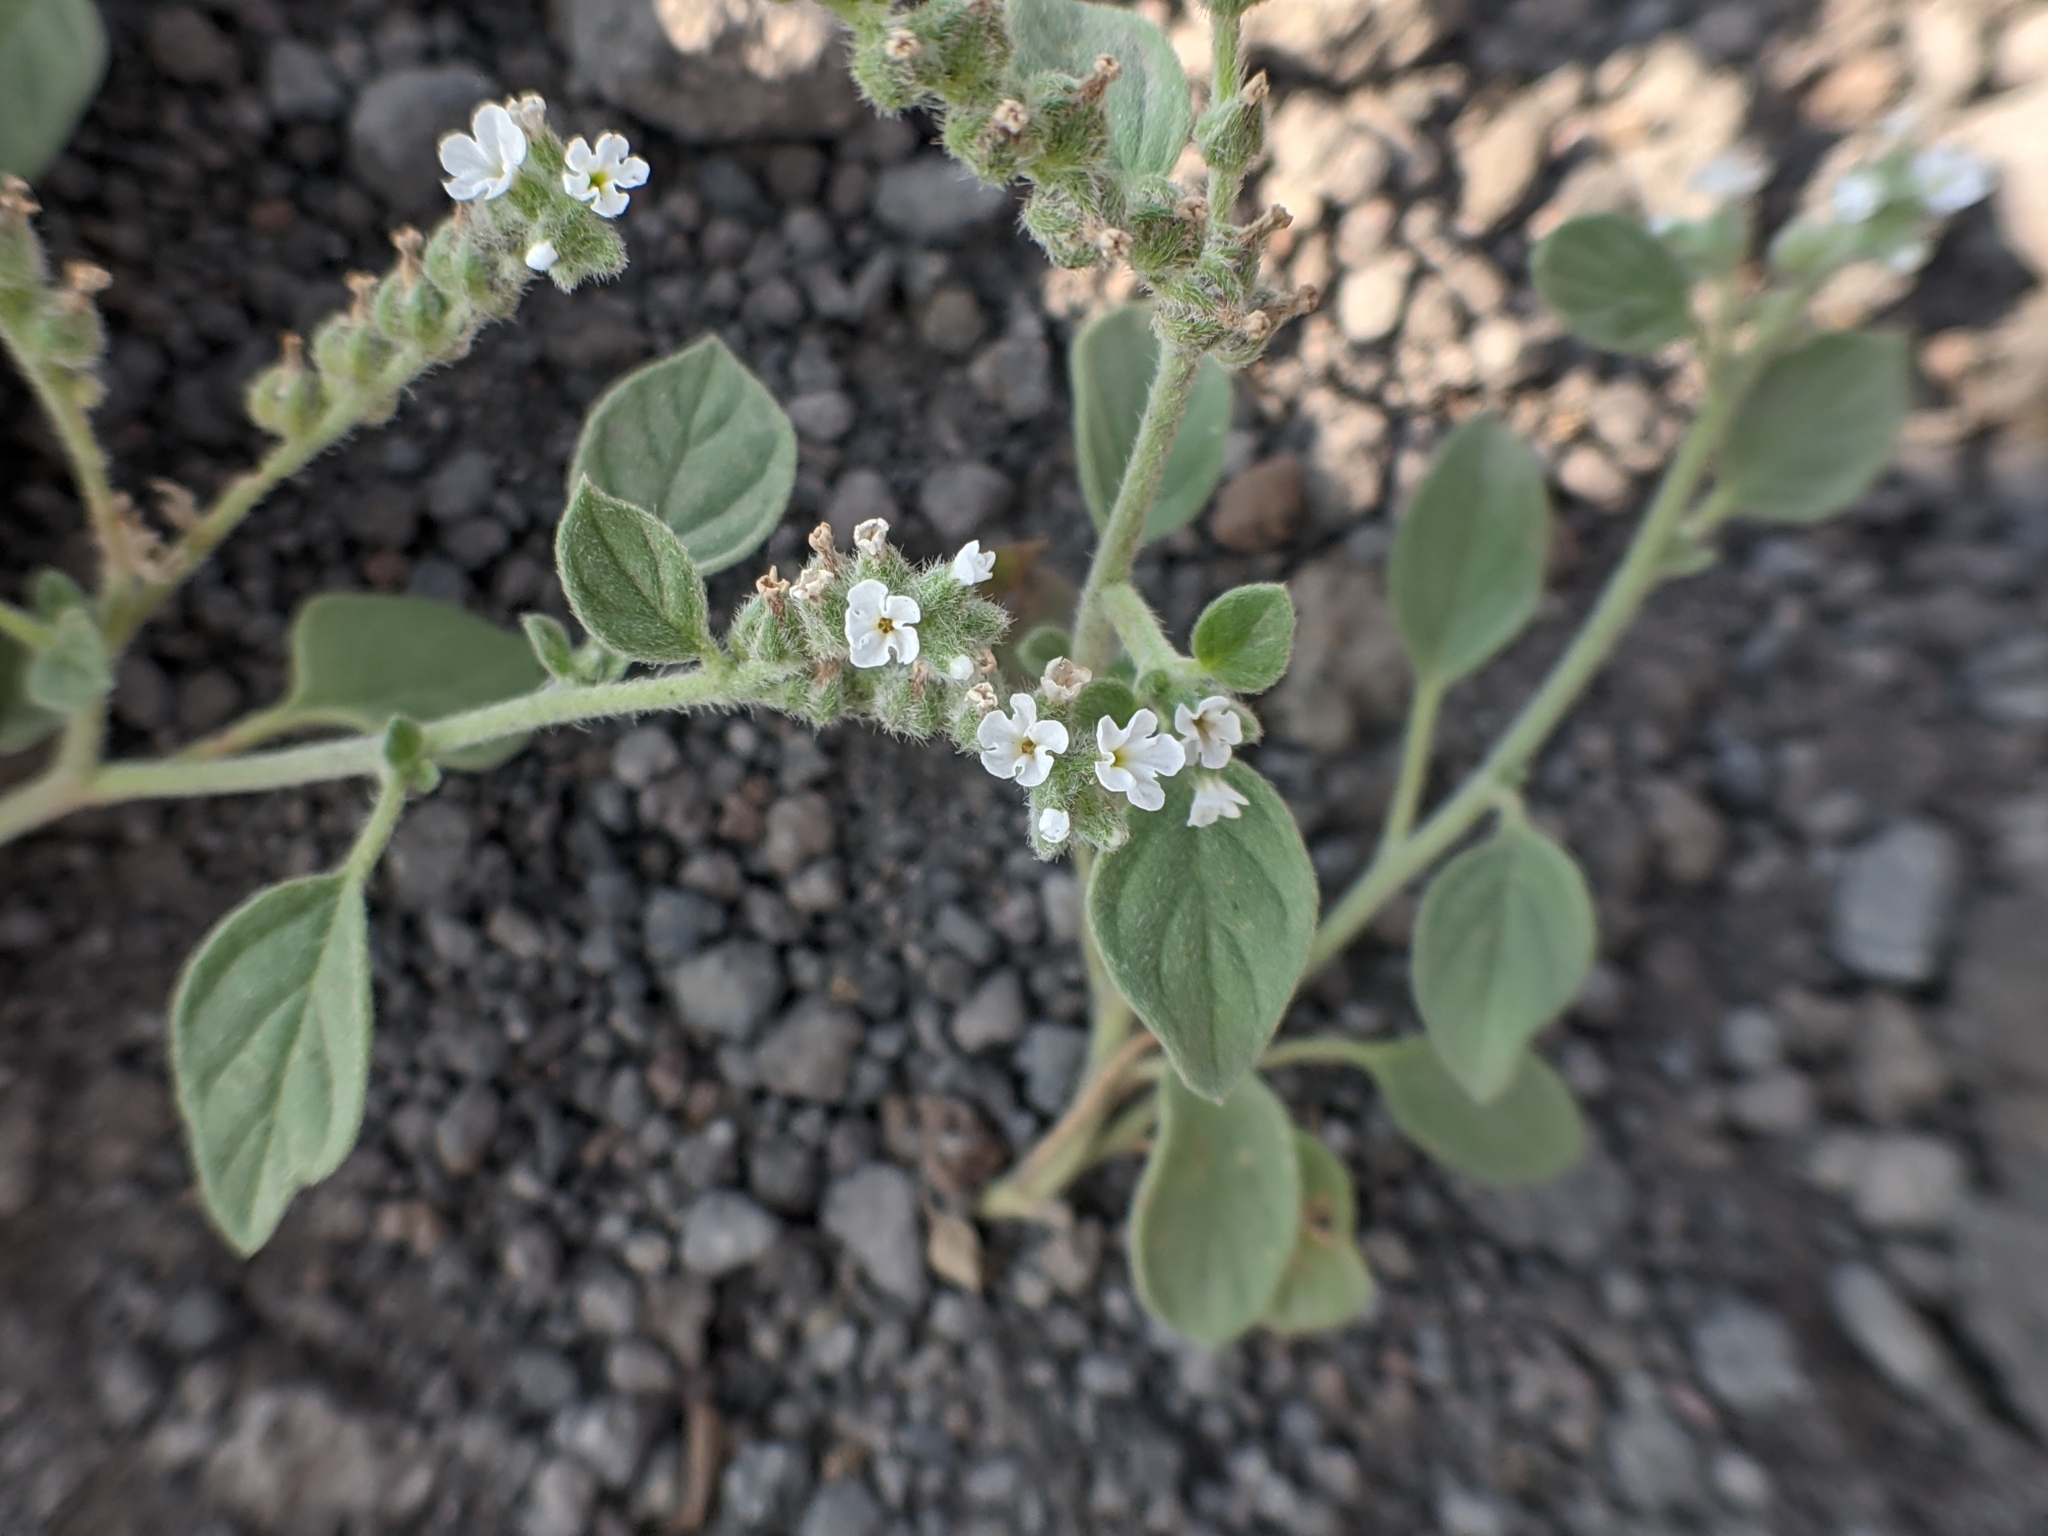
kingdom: Plantae
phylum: Tracheophyta
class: Magnoliopsida
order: Boraginales
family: Heliotropiaceae
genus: Heliotropium
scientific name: Heliotropium europaeum
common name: European heliotrope
